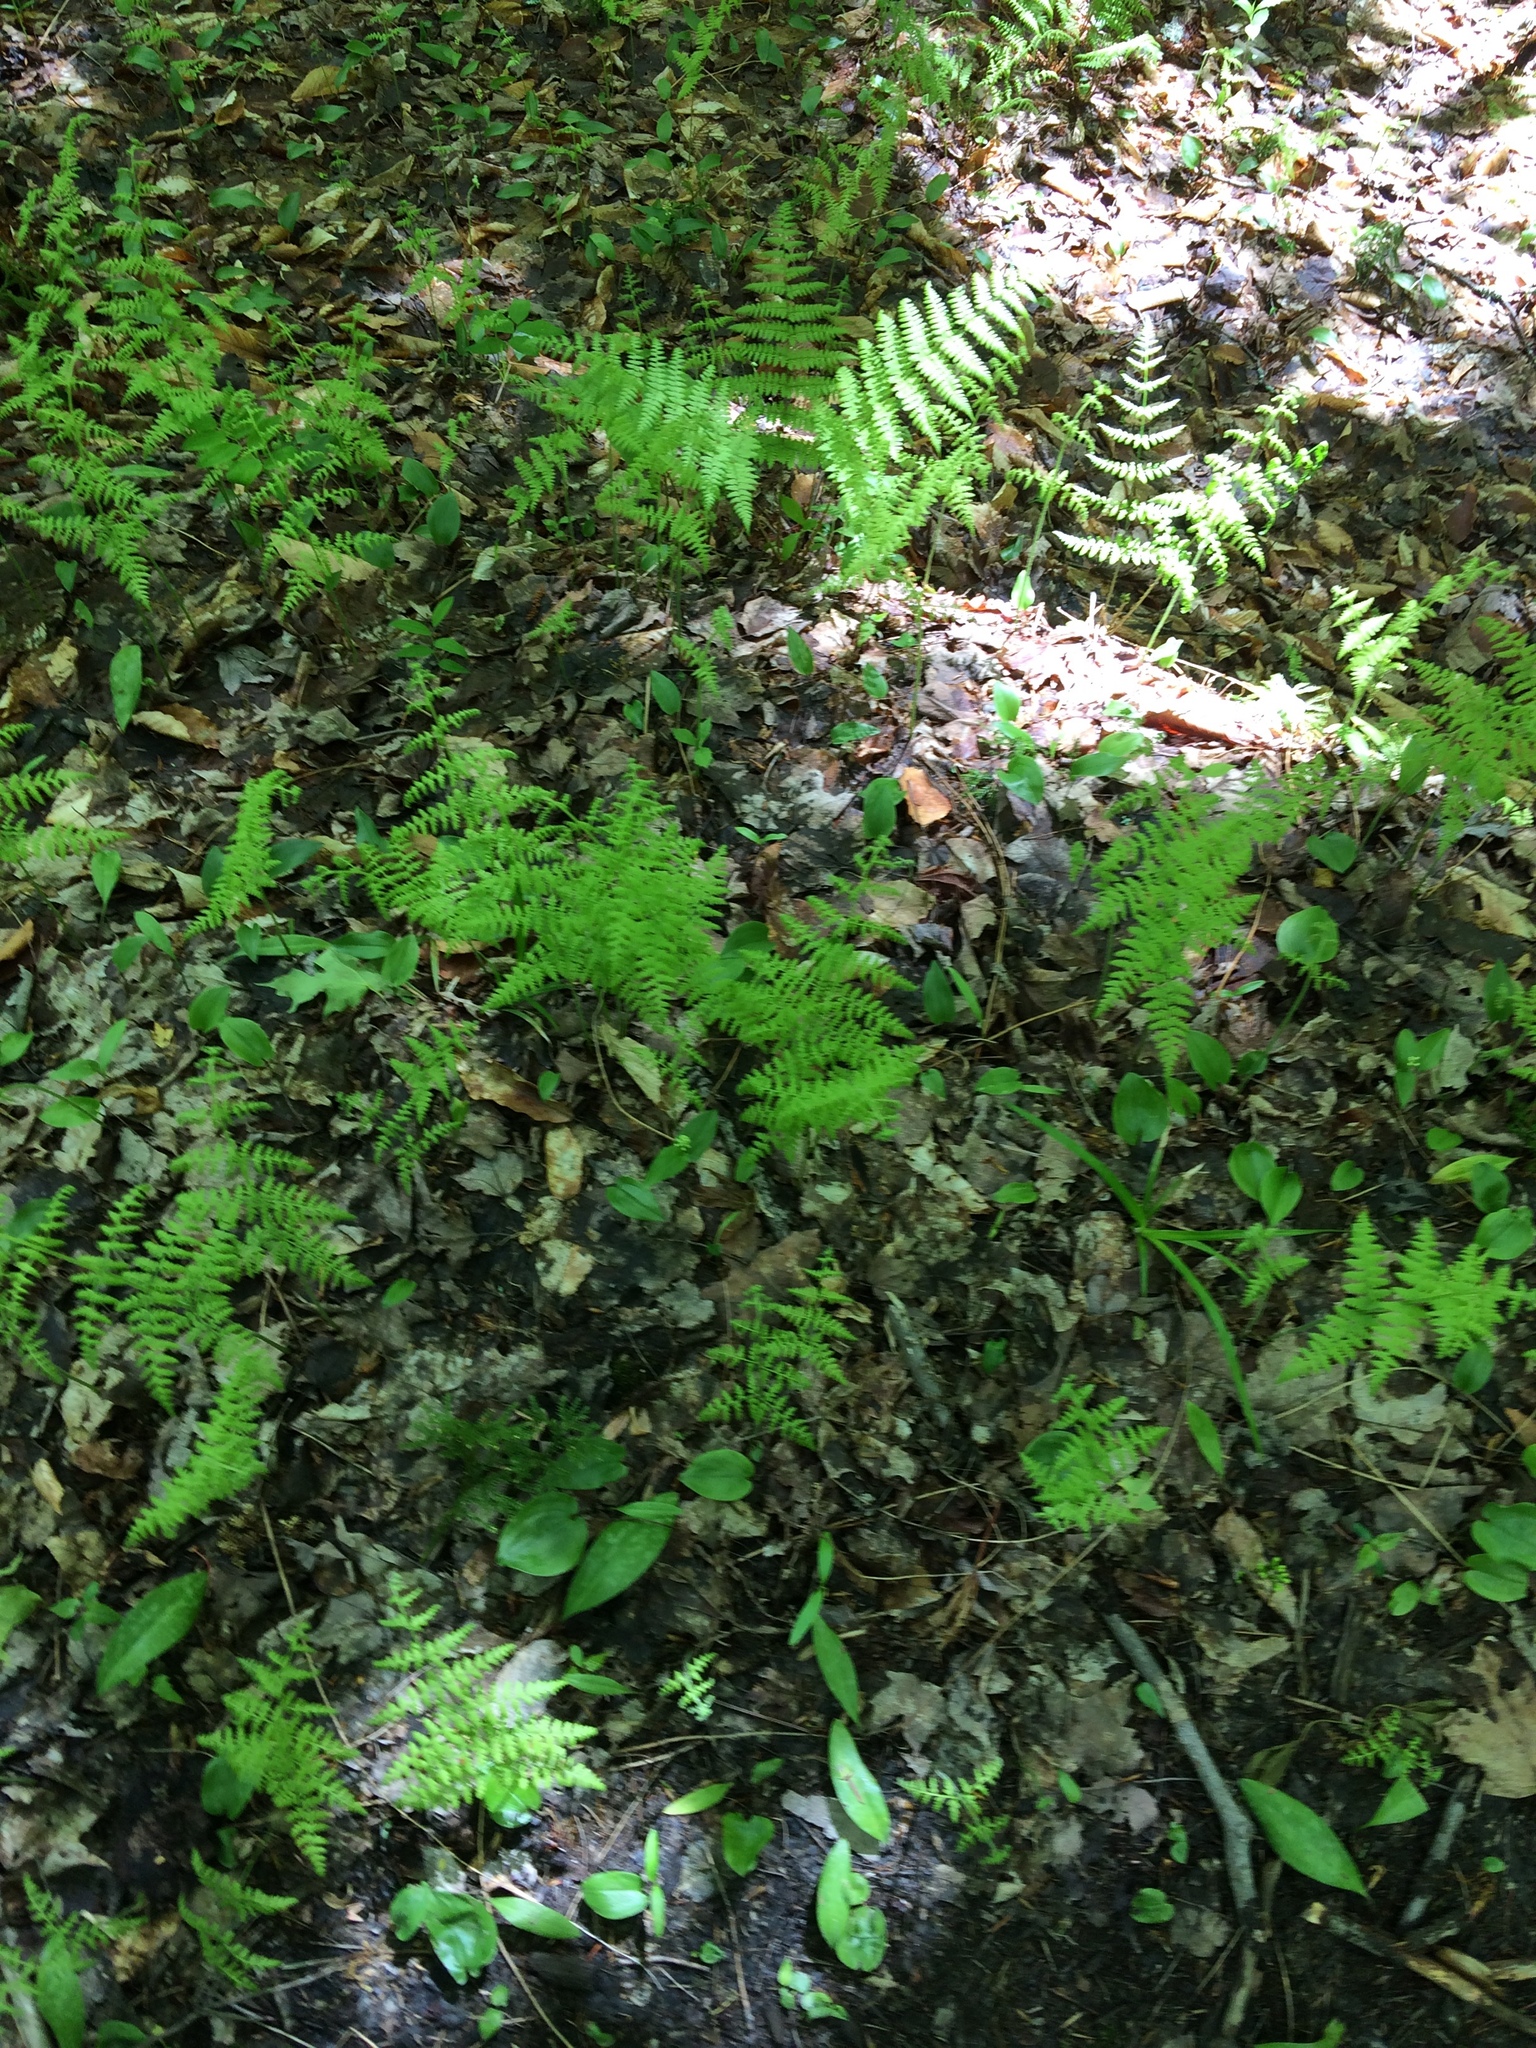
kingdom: Plantae
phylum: Tracheophyta
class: Polypodiopsida
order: Polypodiales
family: Dennstaedtiaceae
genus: Sitobolium
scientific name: Sitobolium punctilobum
